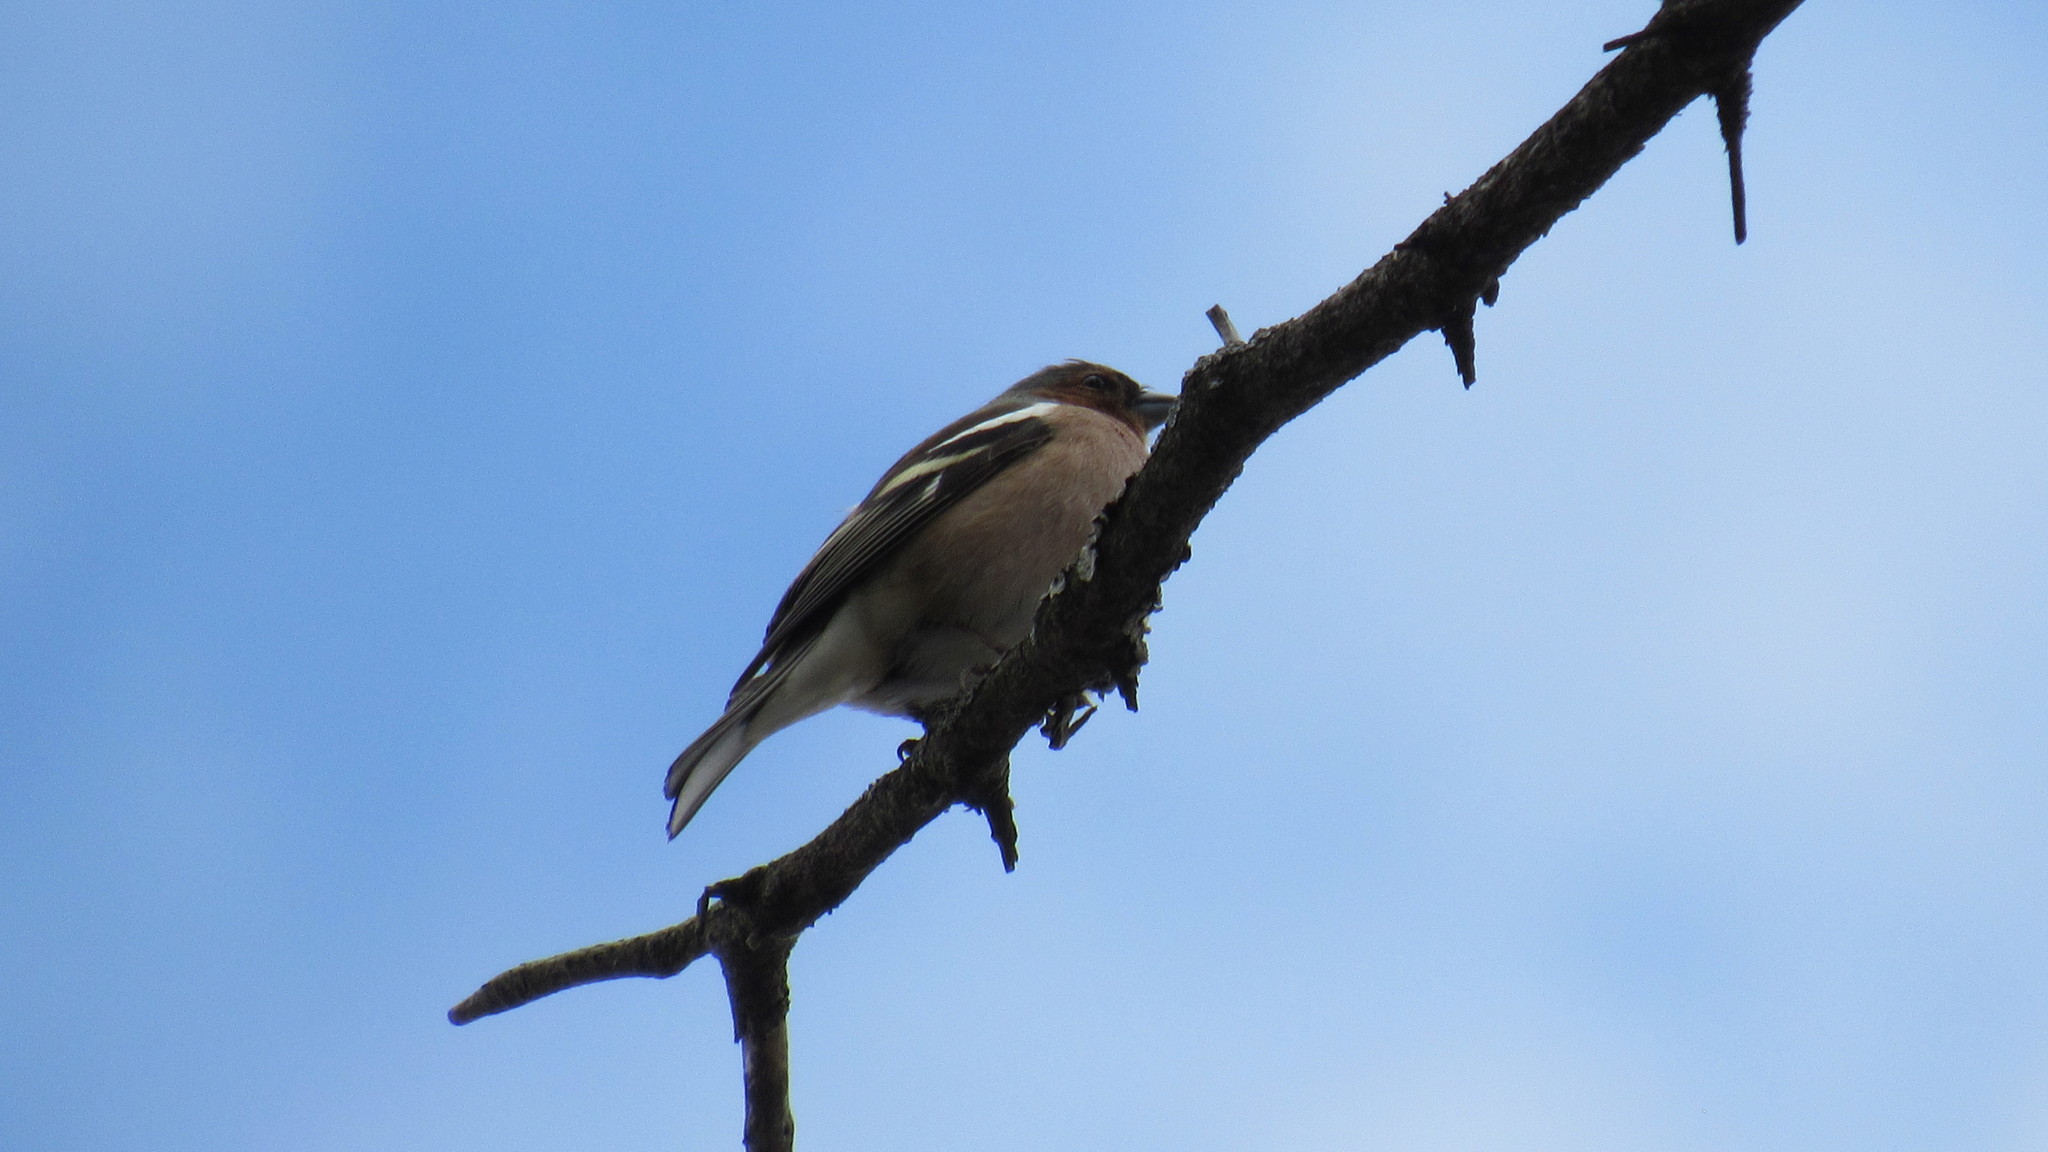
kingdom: Animalia
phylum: Chordata
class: Aves
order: Passeriformes
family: Fringillidae
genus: Fringilla
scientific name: Fringilla coelebs
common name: Common chaffinch
